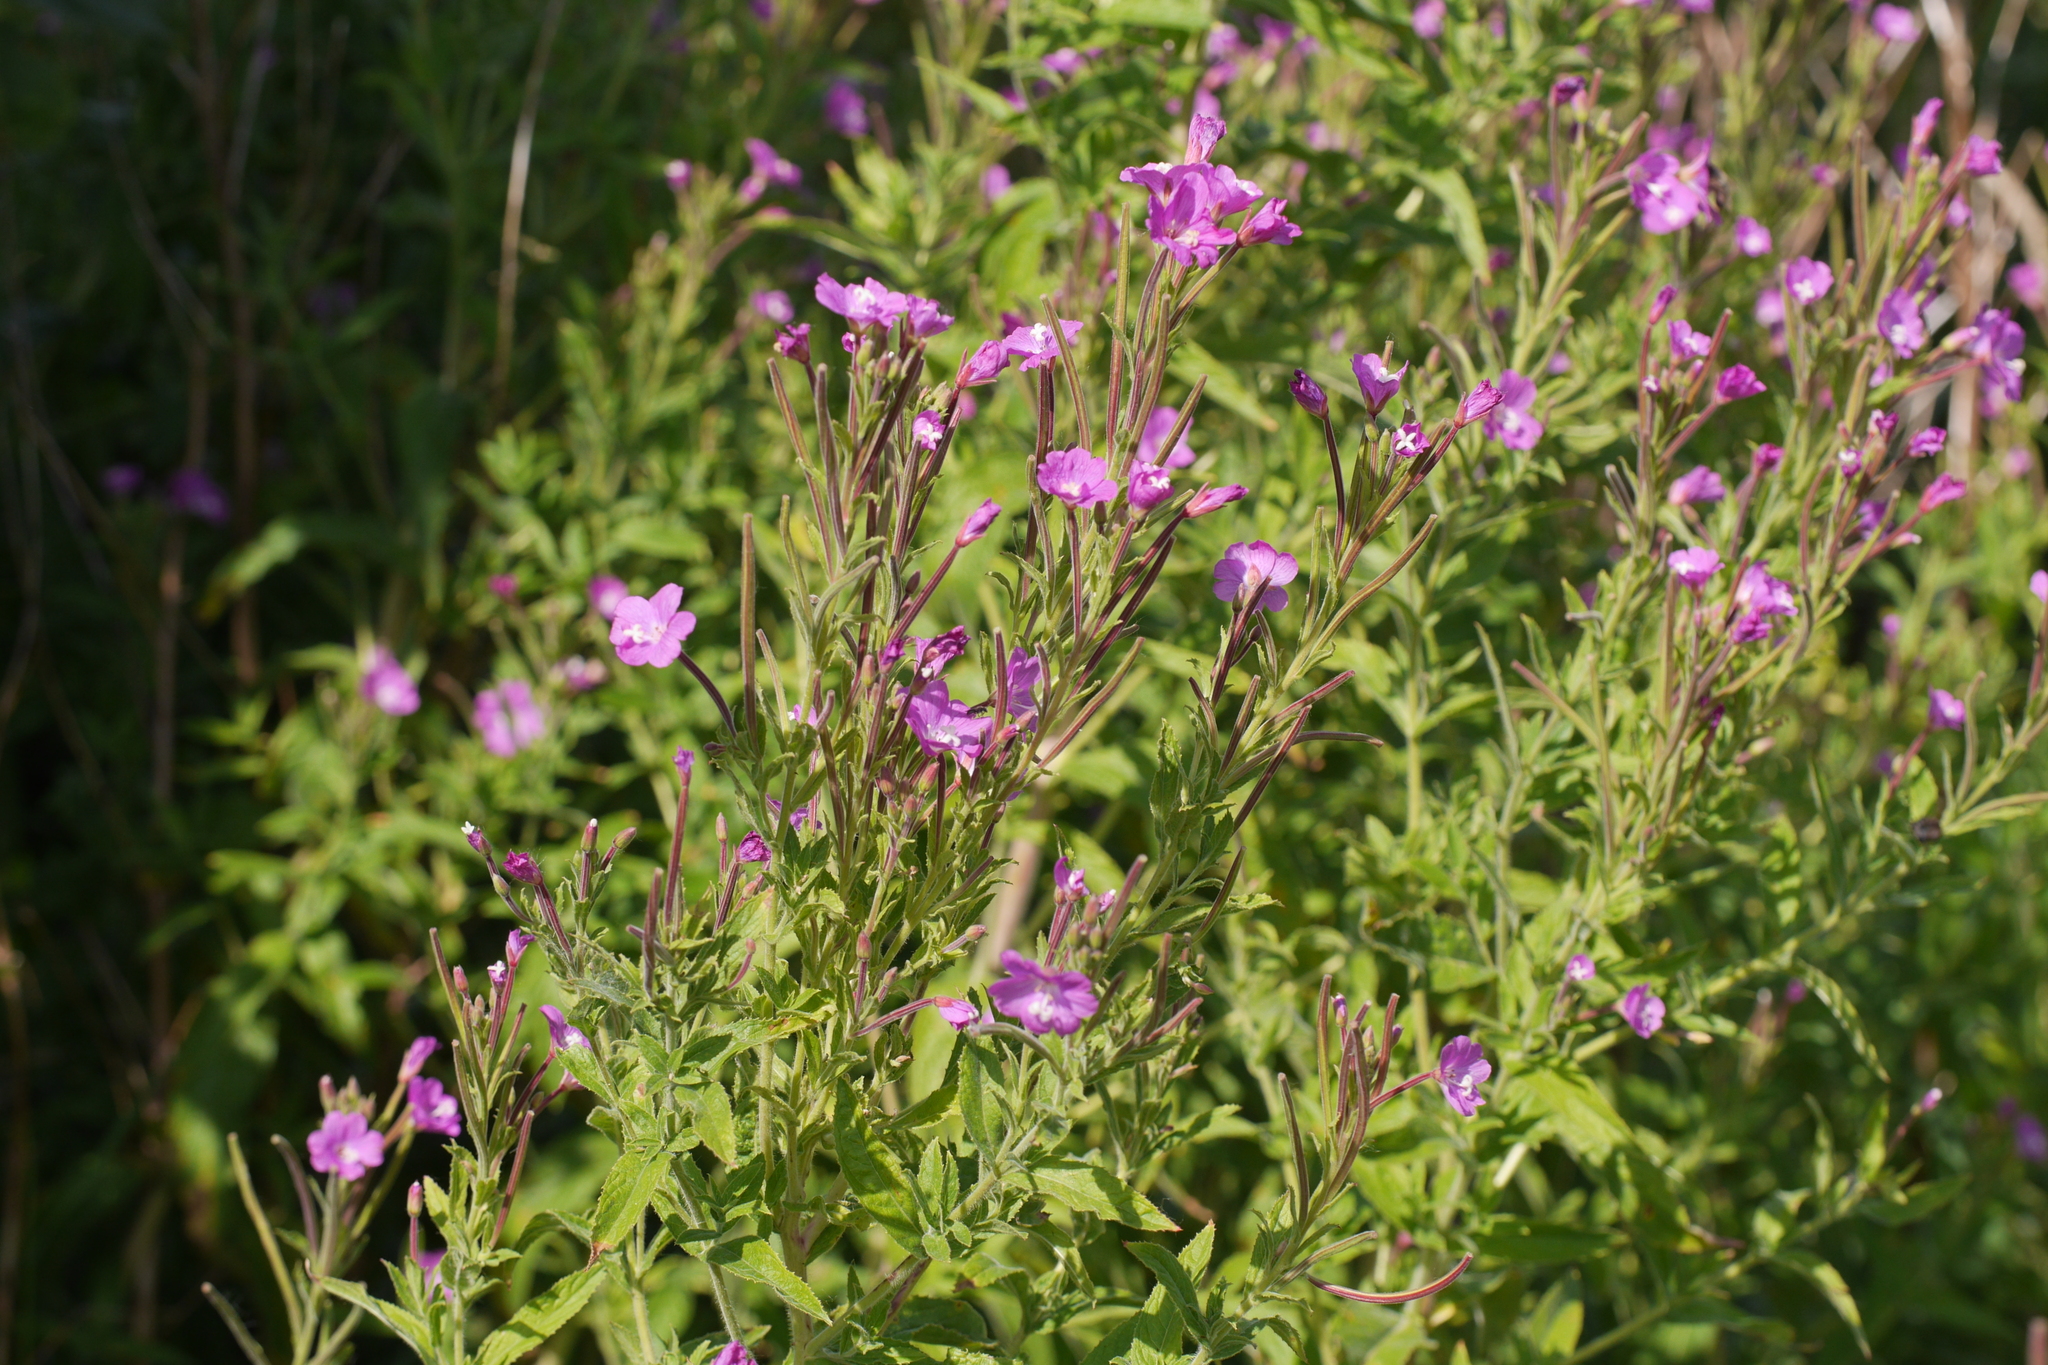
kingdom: Plantae
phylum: Tracheophyta
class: Magnoliopsida
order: Myrtales
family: Onagraceae
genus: Epilobium
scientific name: Epilobium hirsutum
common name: Great willowherb
